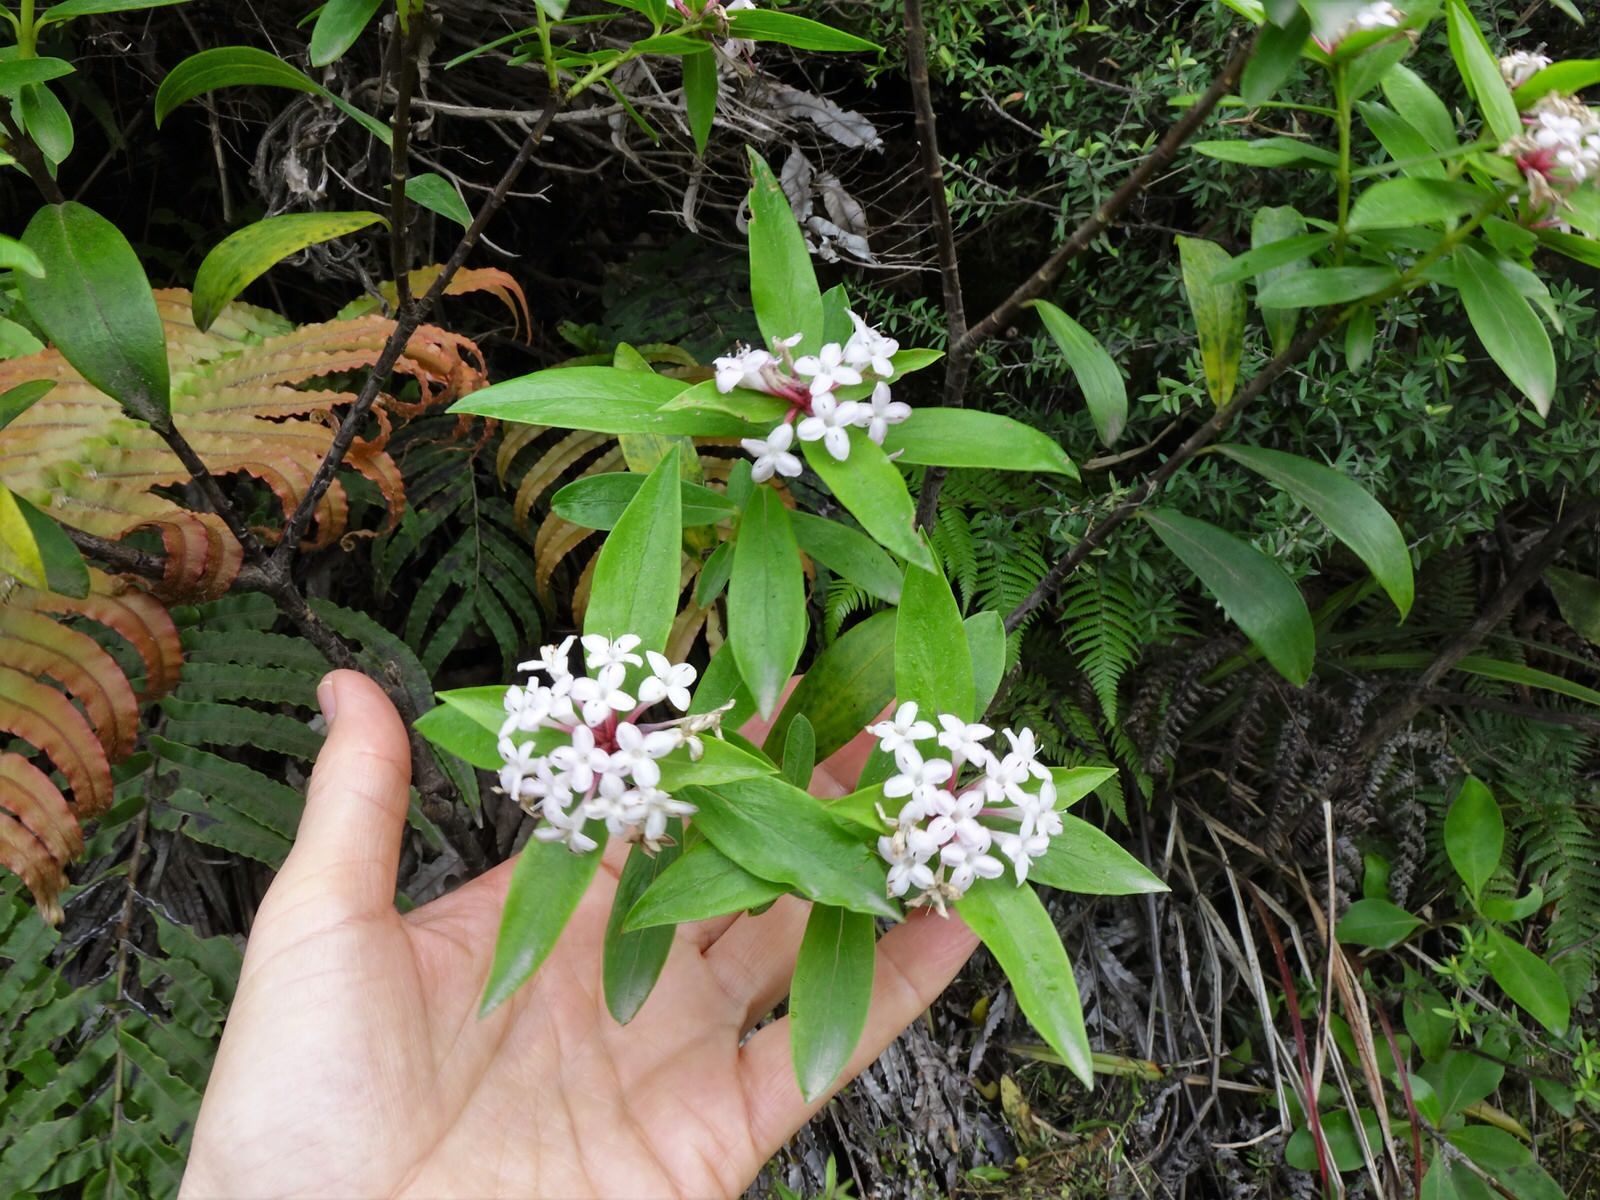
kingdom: Plantae
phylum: Tracheophyta
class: Magnoliopsida
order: Malvales
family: Thymelaeaceae
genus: Pimelea
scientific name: Pimelea longifolia
